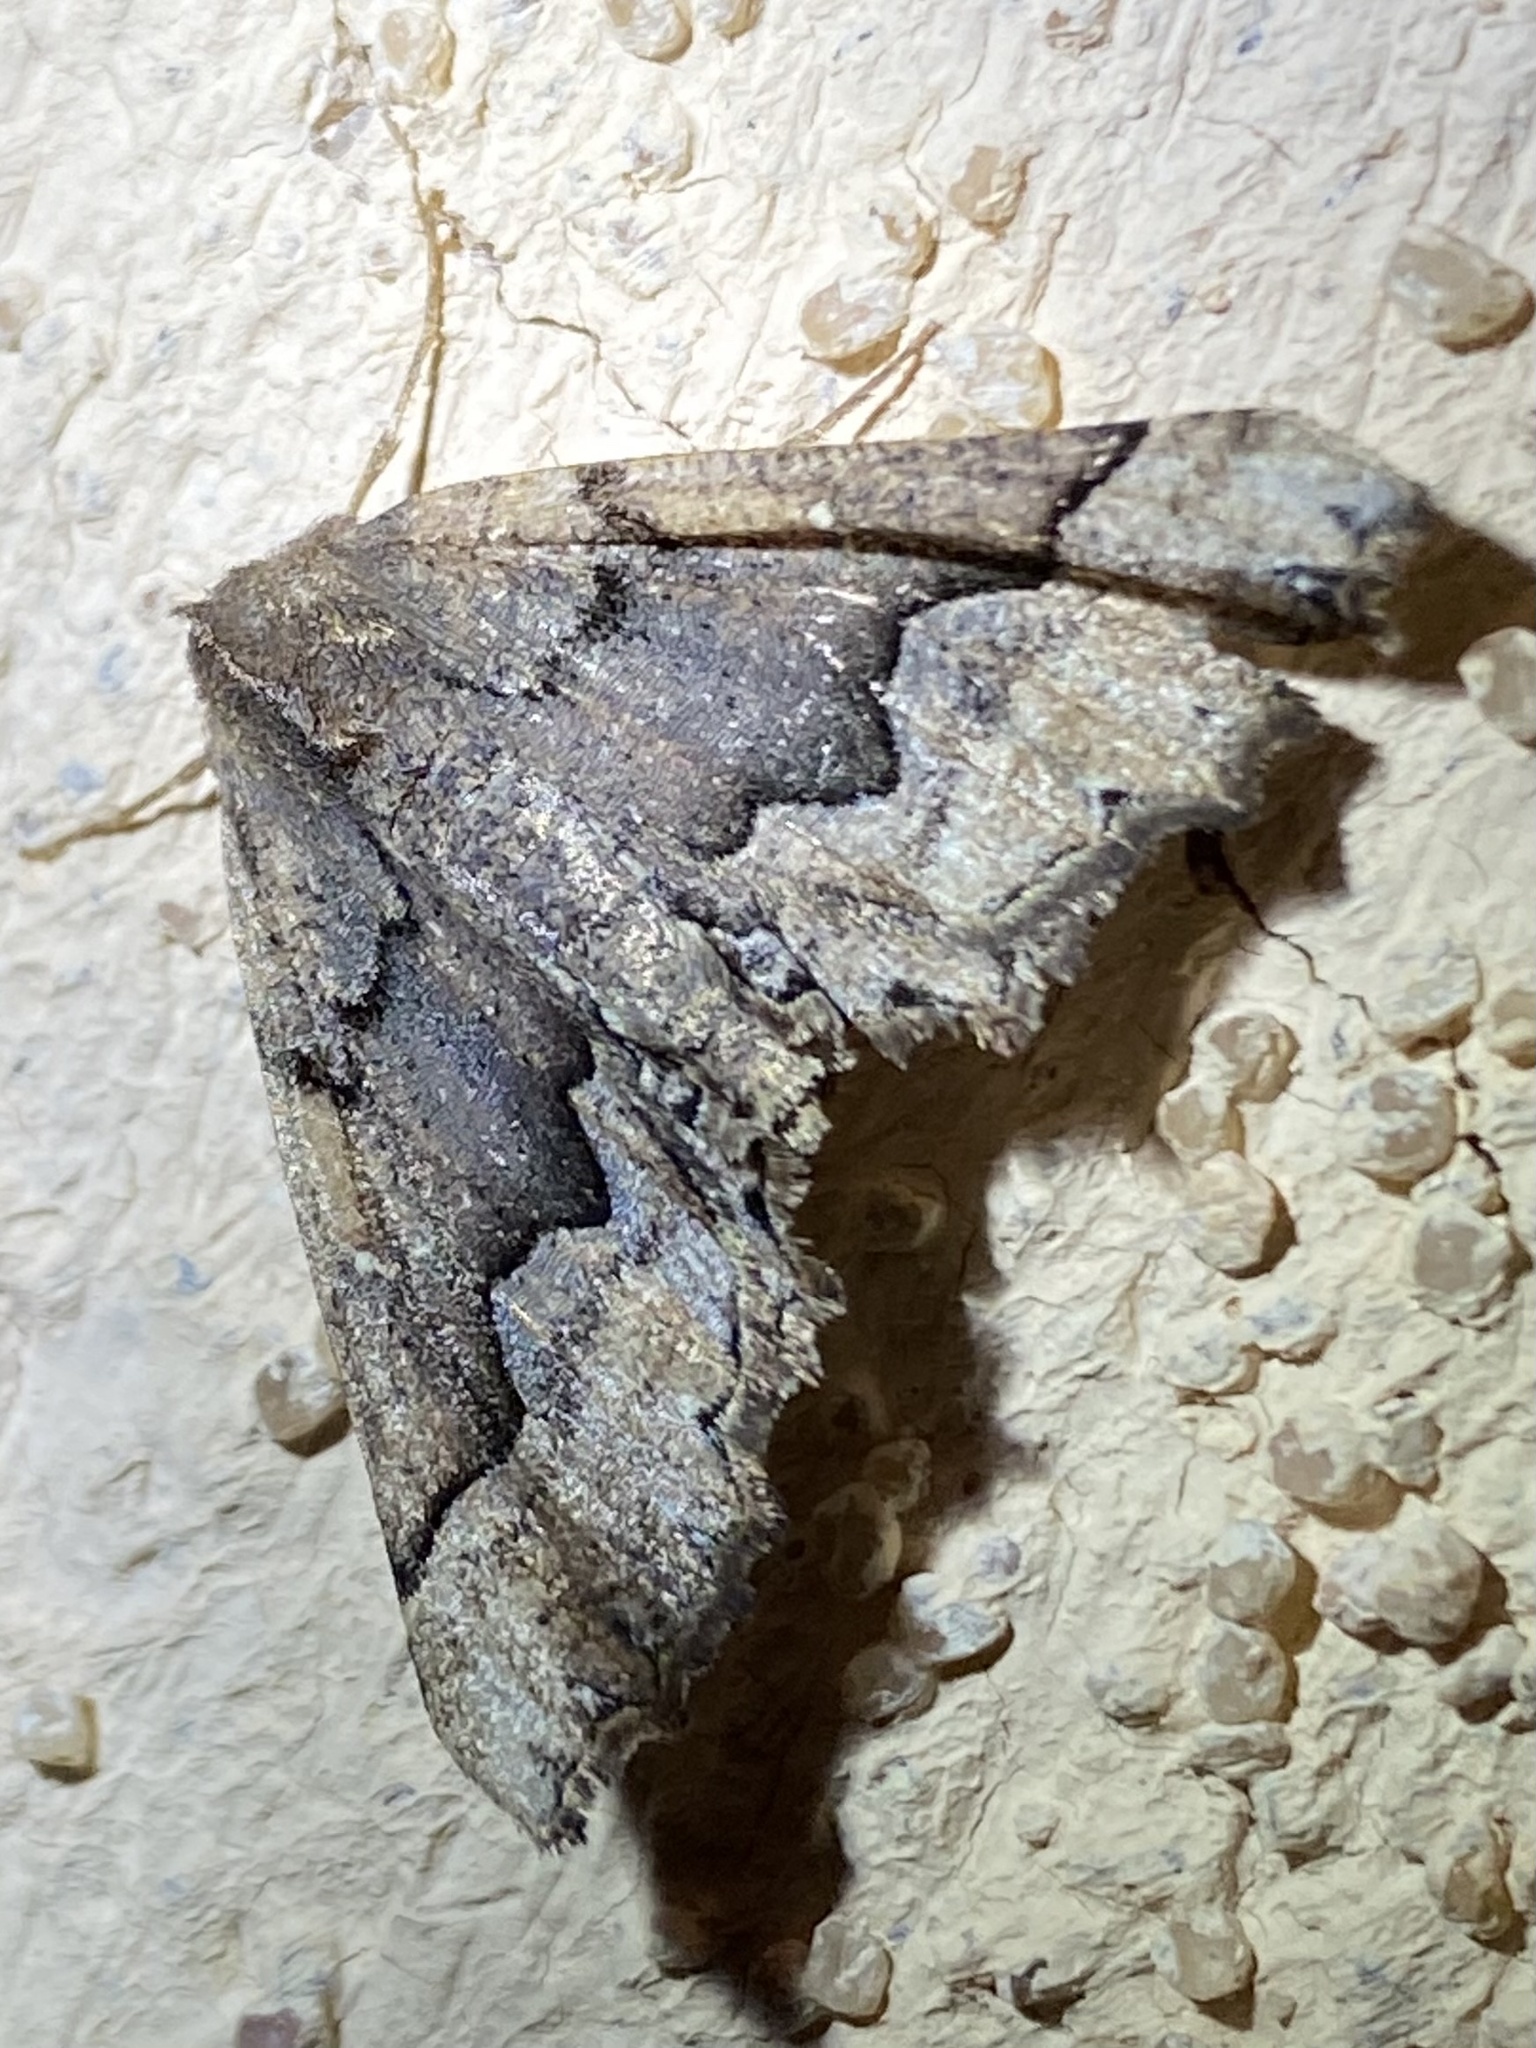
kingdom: Animalia
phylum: Arthropoda
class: Insecta
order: Lepidoptera
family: Geometridae
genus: Pero
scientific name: Pero occidentalis
